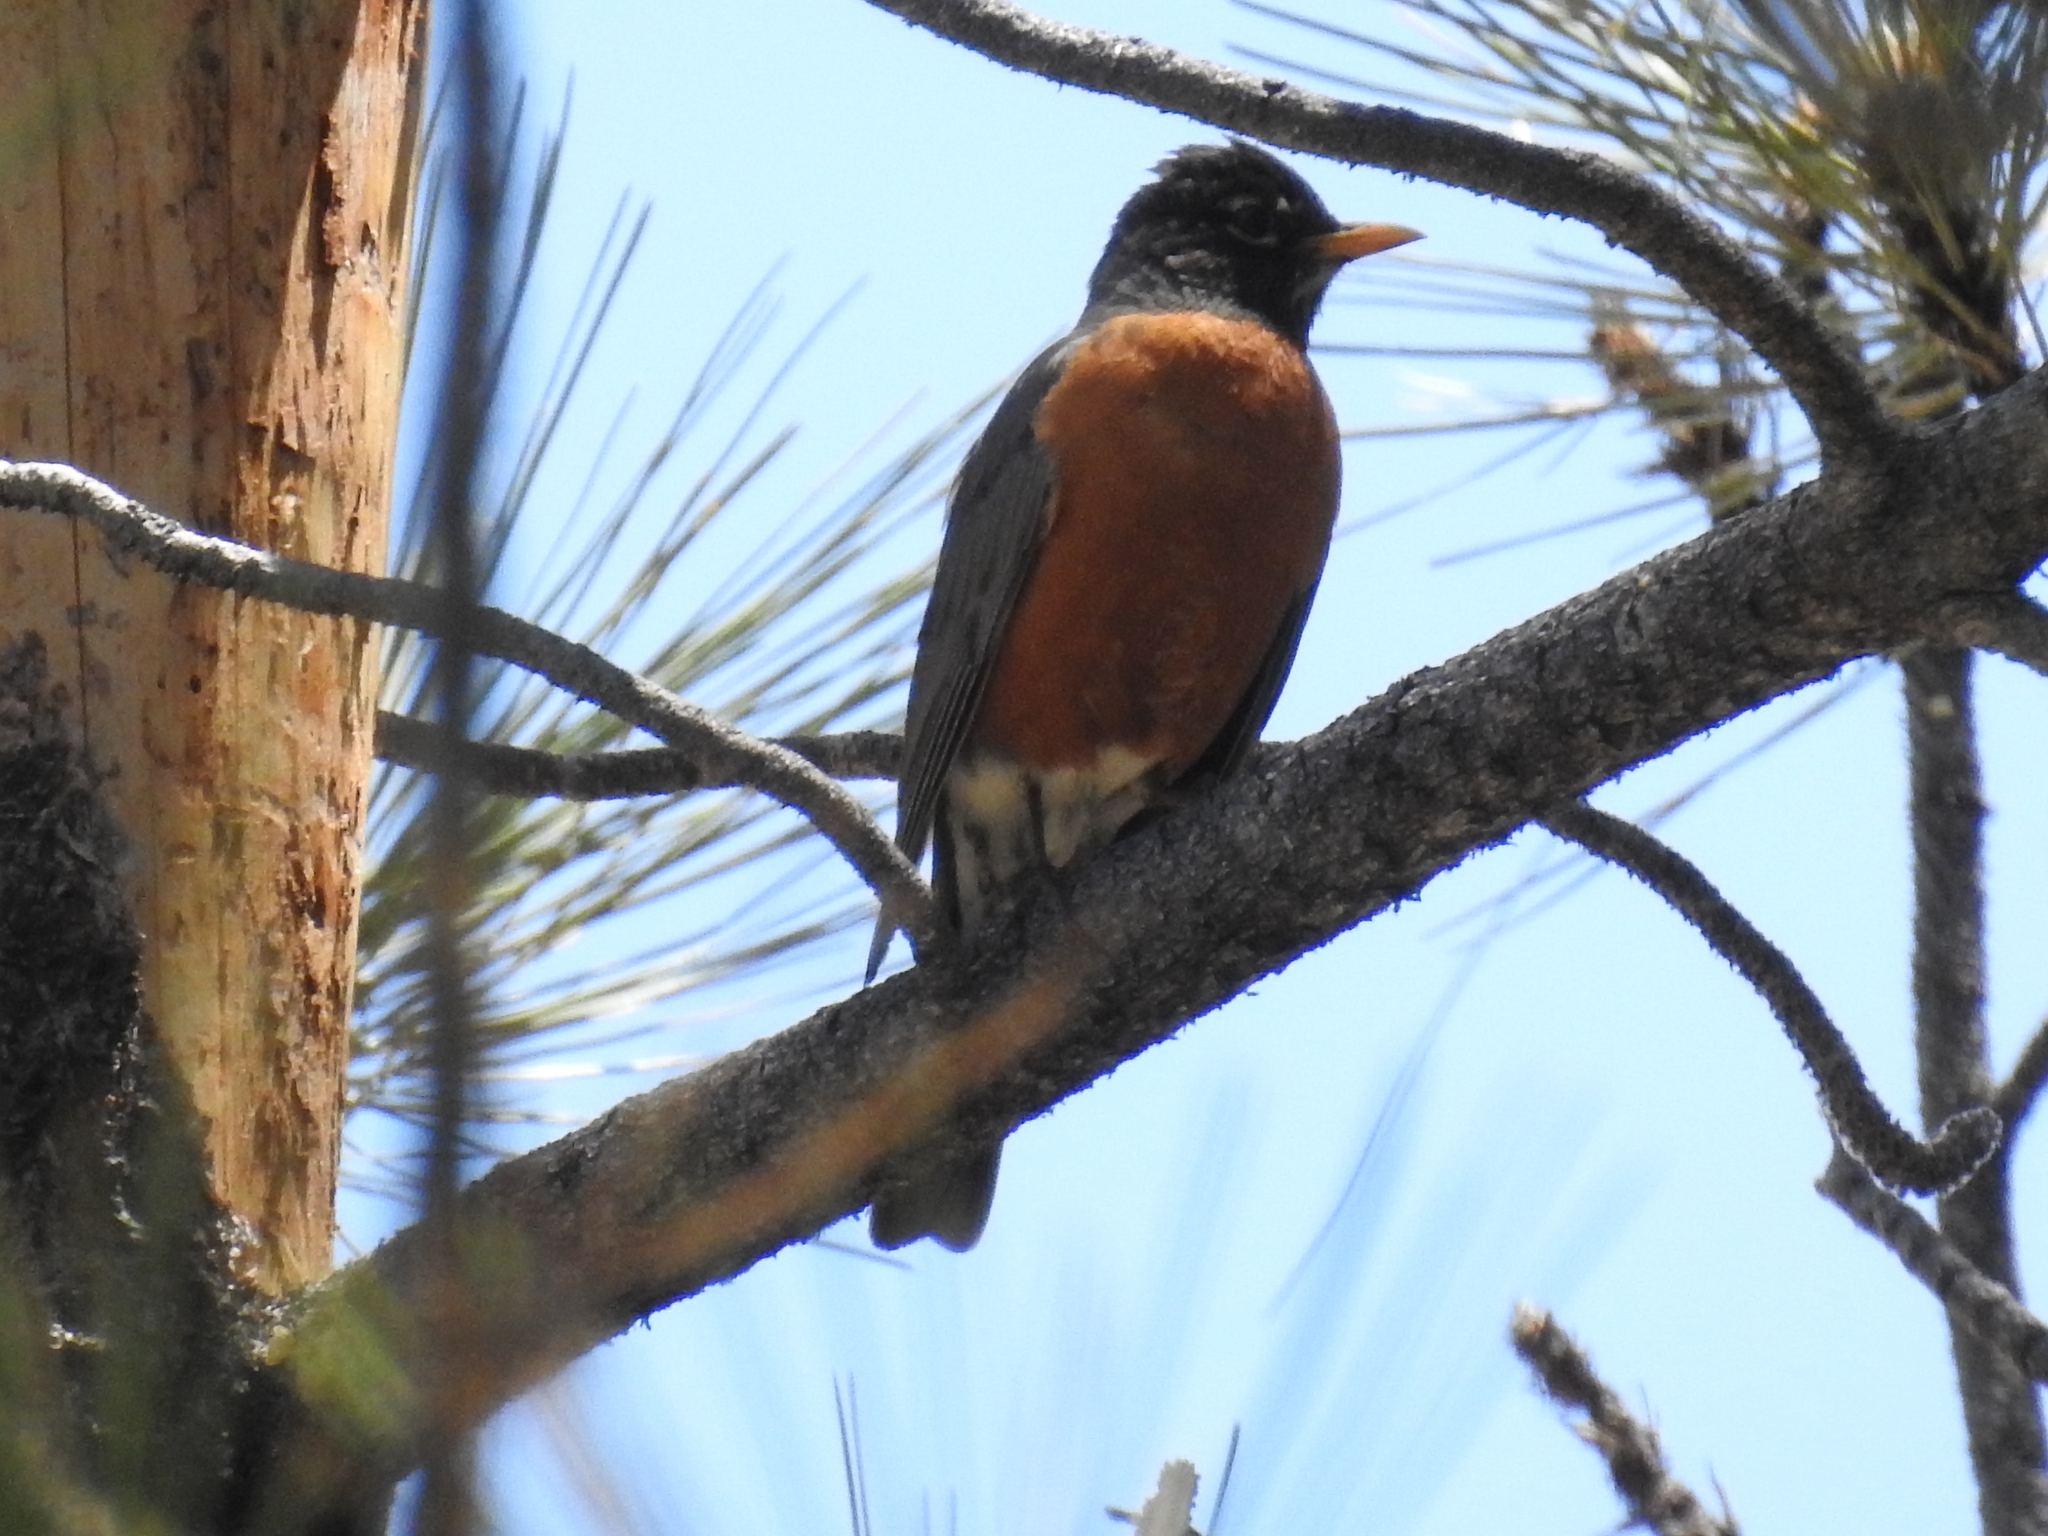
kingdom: Animalia
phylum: Chordata
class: Aves
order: Passeriformes
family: Turdidae
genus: Turdus
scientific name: Turdus migratorius
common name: American robin
